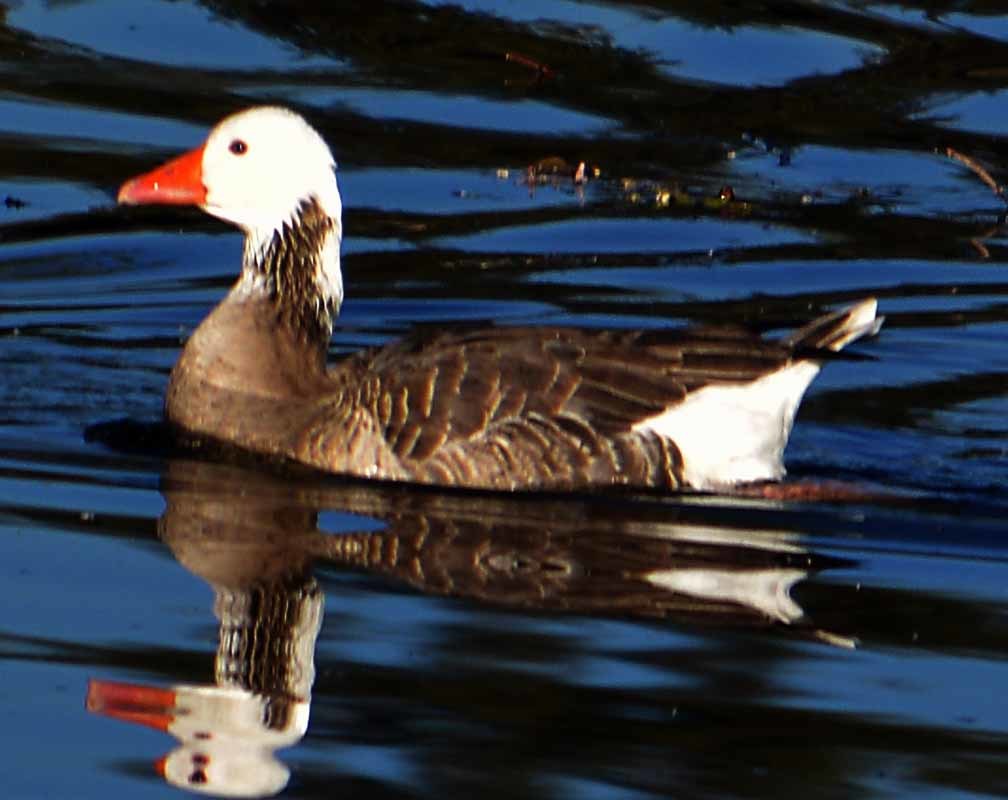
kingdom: Animalia
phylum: Chordata
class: Aves
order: Anseriformes
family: Anatidae
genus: Anser
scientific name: Anser anser
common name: Greylag goose
